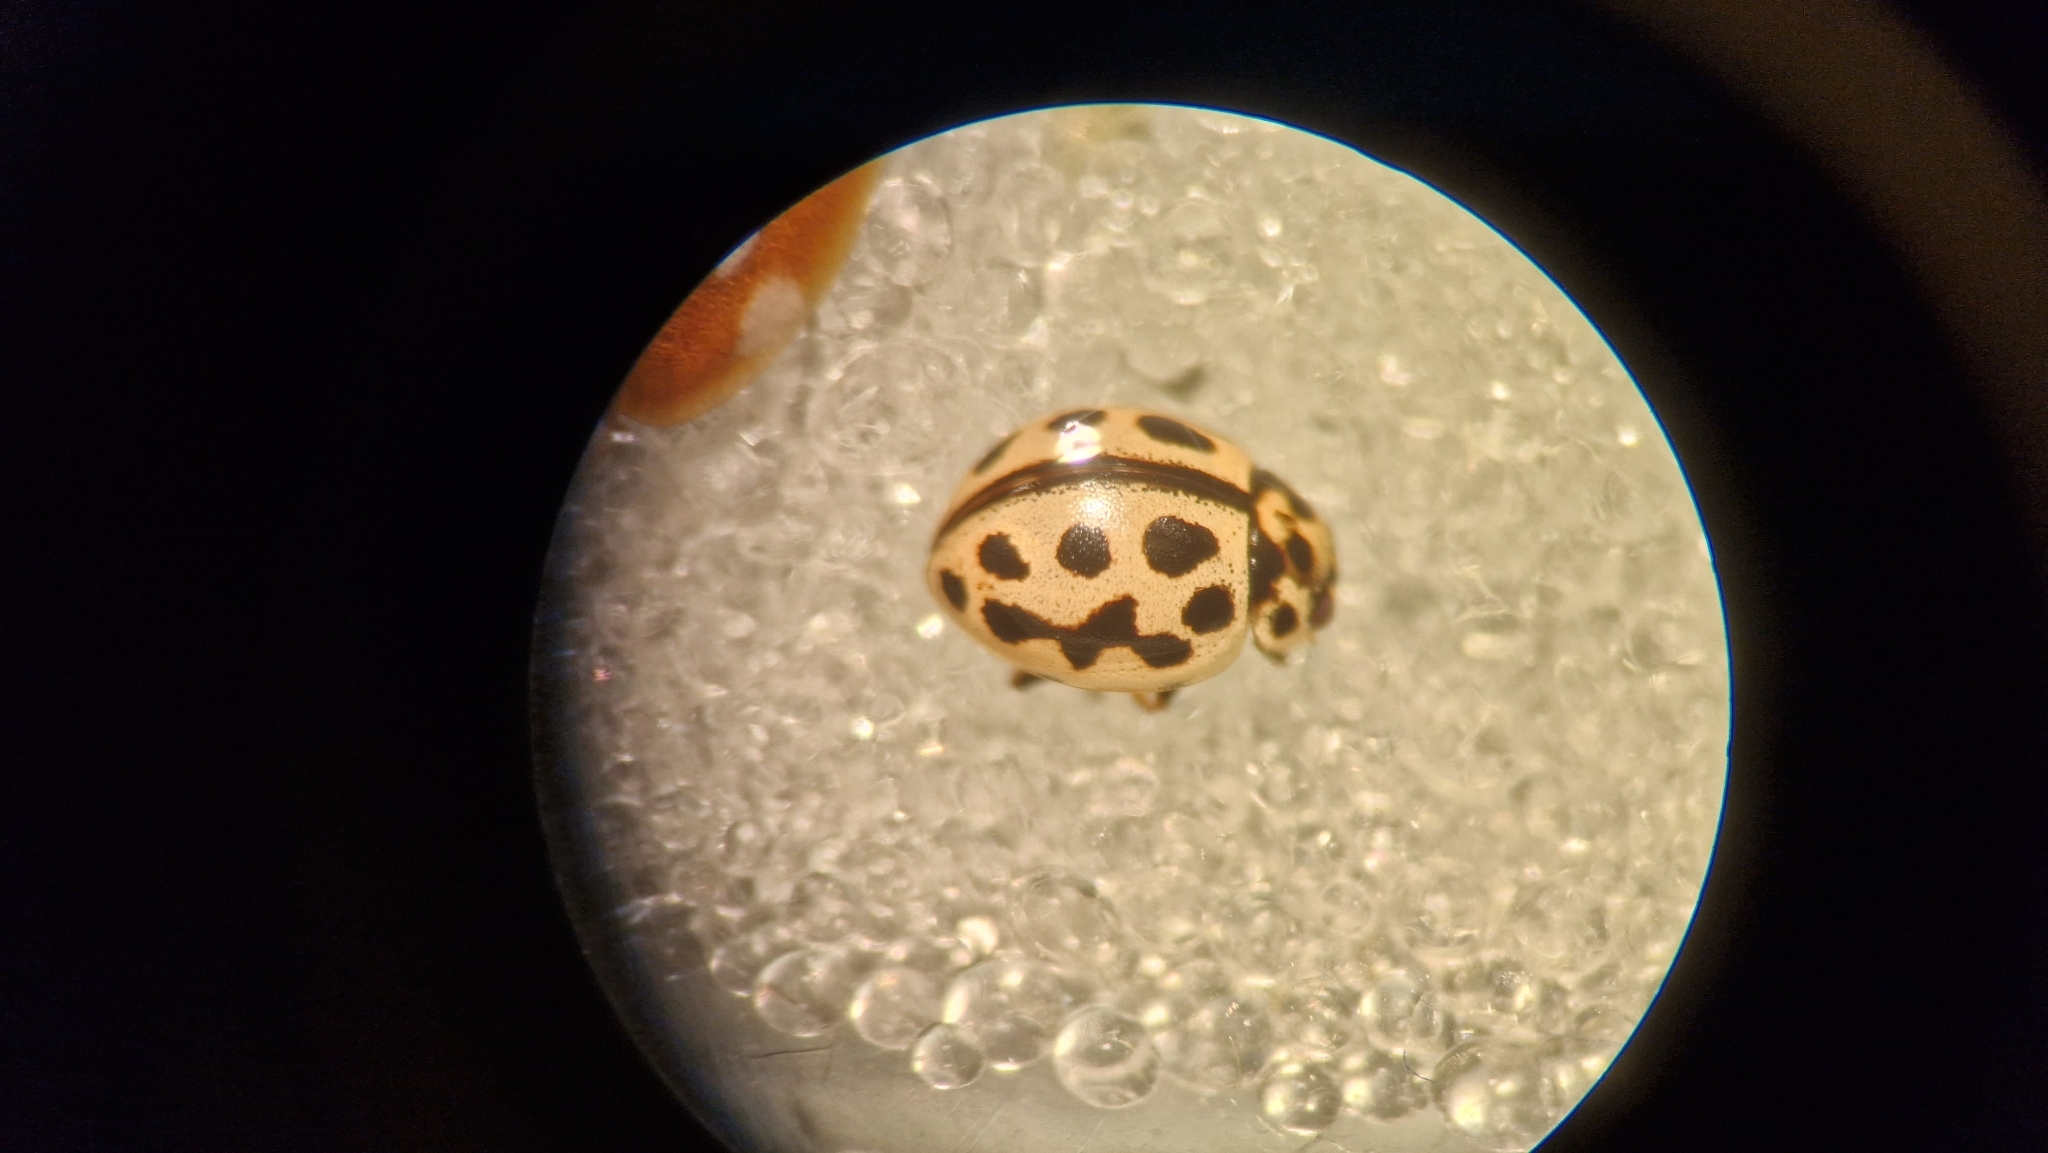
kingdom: Animalia
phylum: Arthropoda
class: Insecta
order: Coleoptera
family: Coccinellidae
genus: Tytthaspis
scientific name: Tytthaspis sedecimpunctata
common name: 16-spot ladybird
